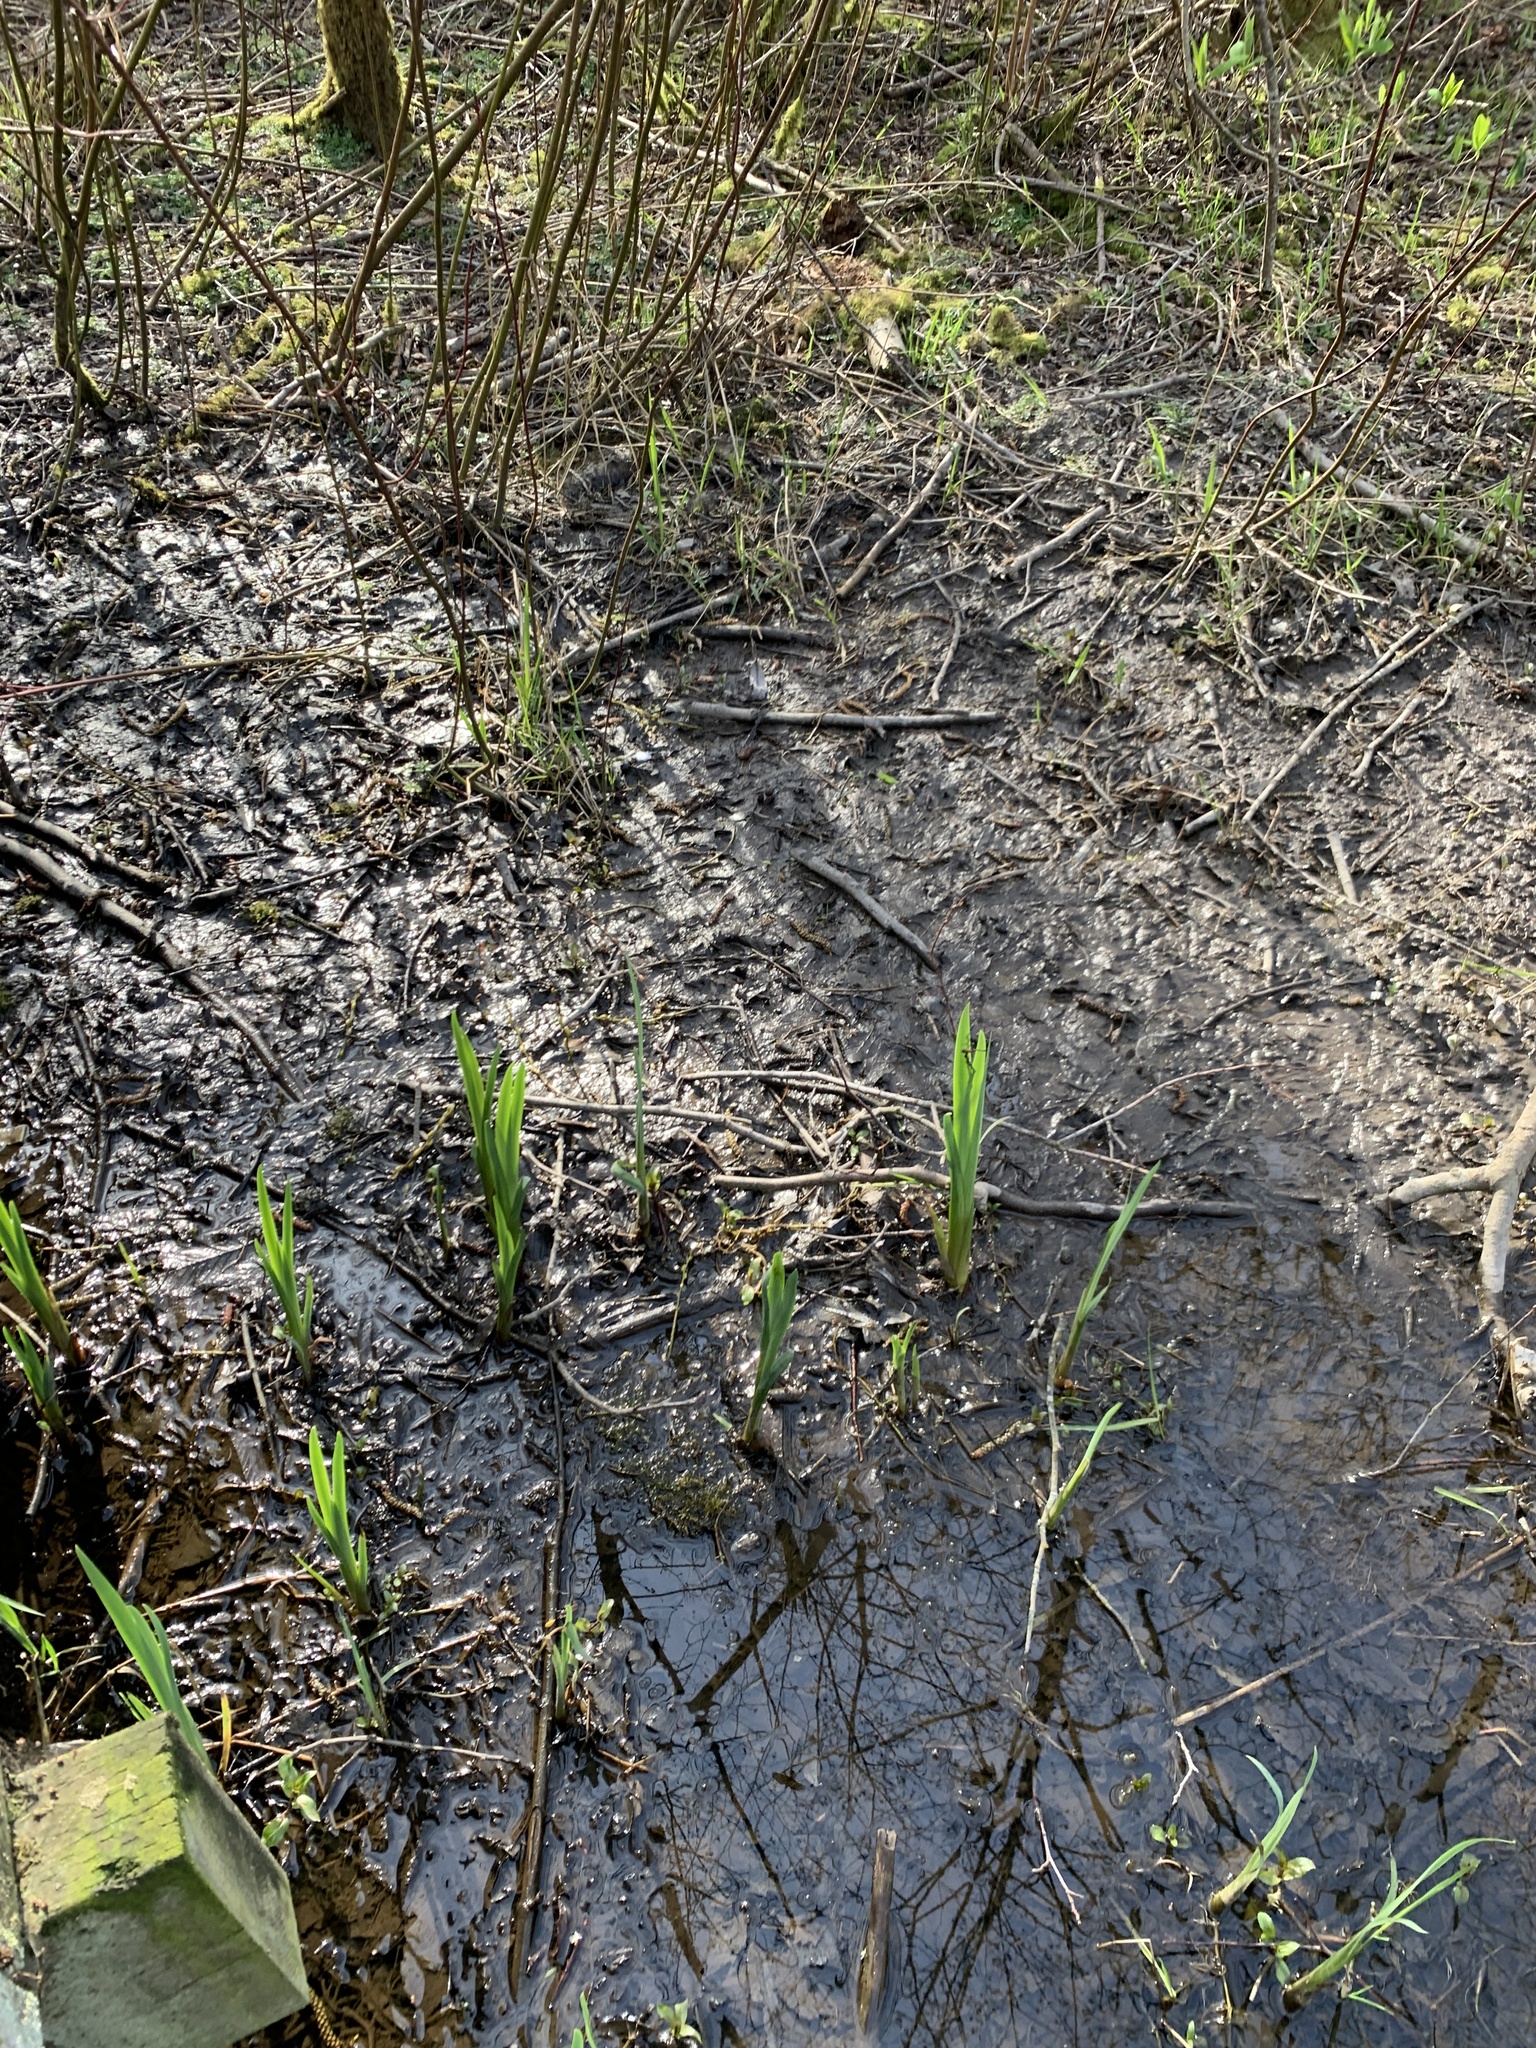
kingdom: Plantae
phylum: Tracheophyta
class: Liliopsida
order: Asparagales
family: Iridaceae
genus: Iris
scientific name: Iris pseudacorus
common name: Yellow flag
